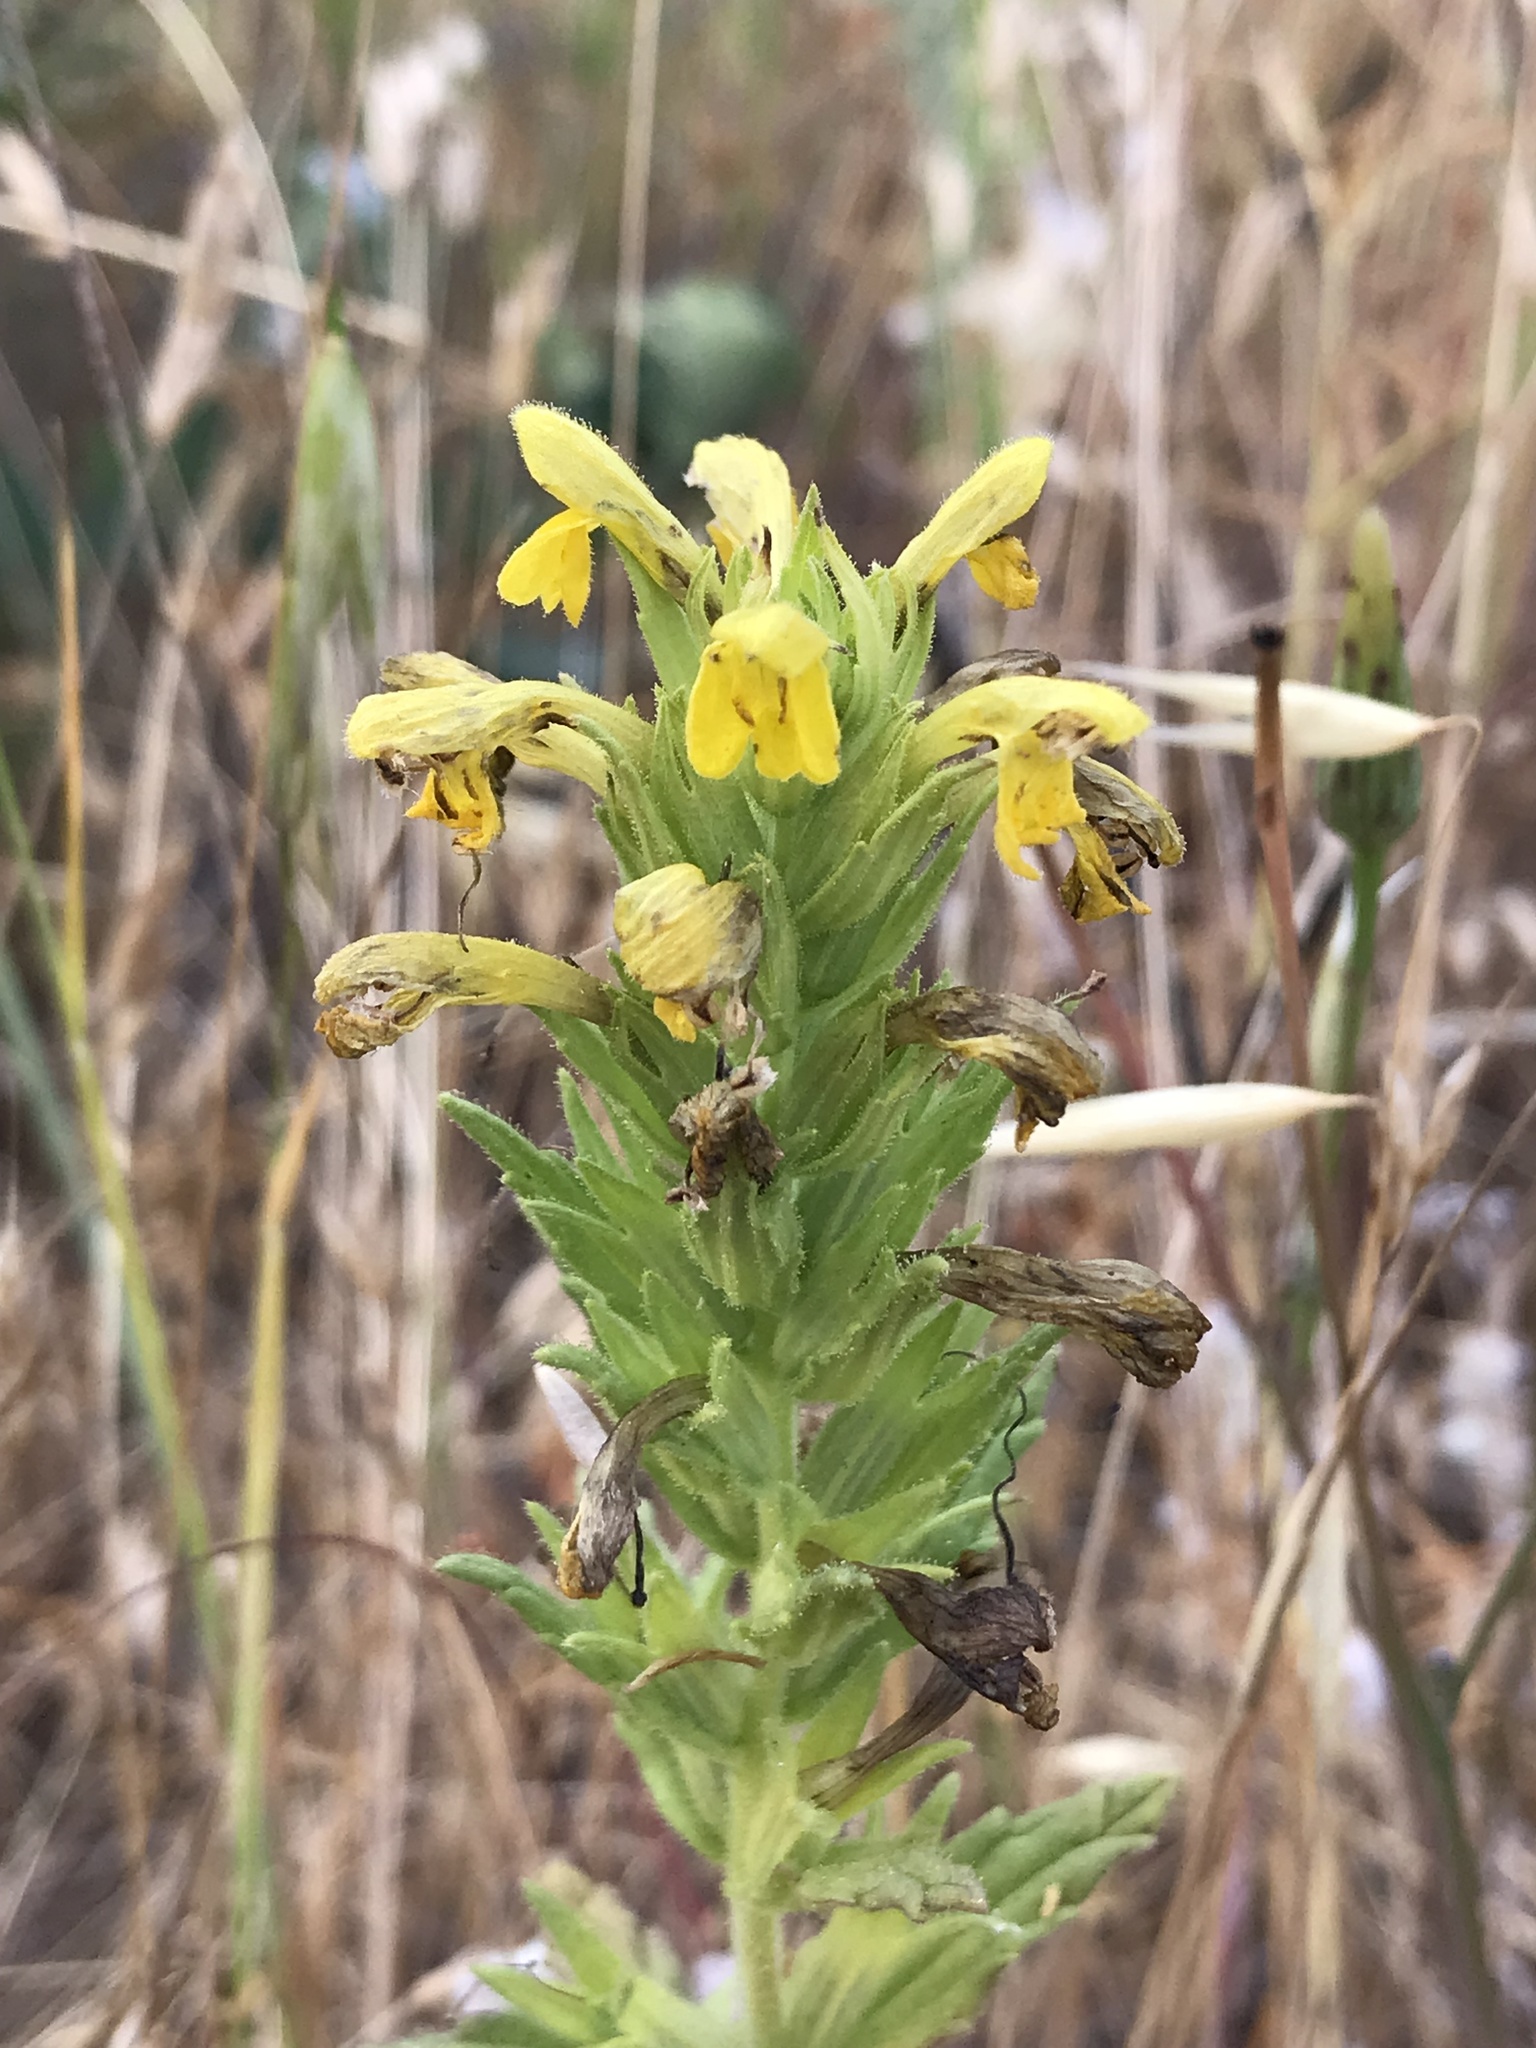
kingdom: Plantae
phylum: Tracheophyta
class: Magnoliopsida
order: Lamiales
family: Orobanchaceae
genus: Bellardia
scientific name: Bellardia viscosa
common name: Sticky parentucellia
